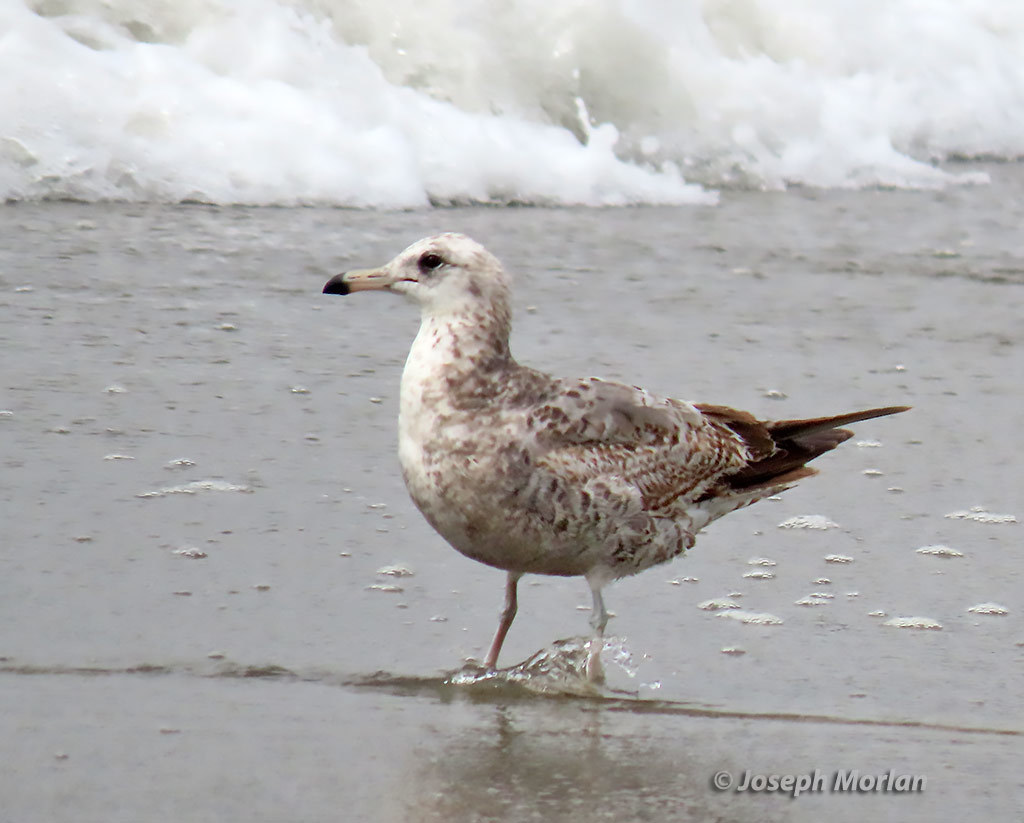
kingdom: Animalia
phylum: Chordata
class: Aves
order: Charadriiformes
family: Laridae
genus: Larus
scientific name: Larus californicus
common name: California gull
